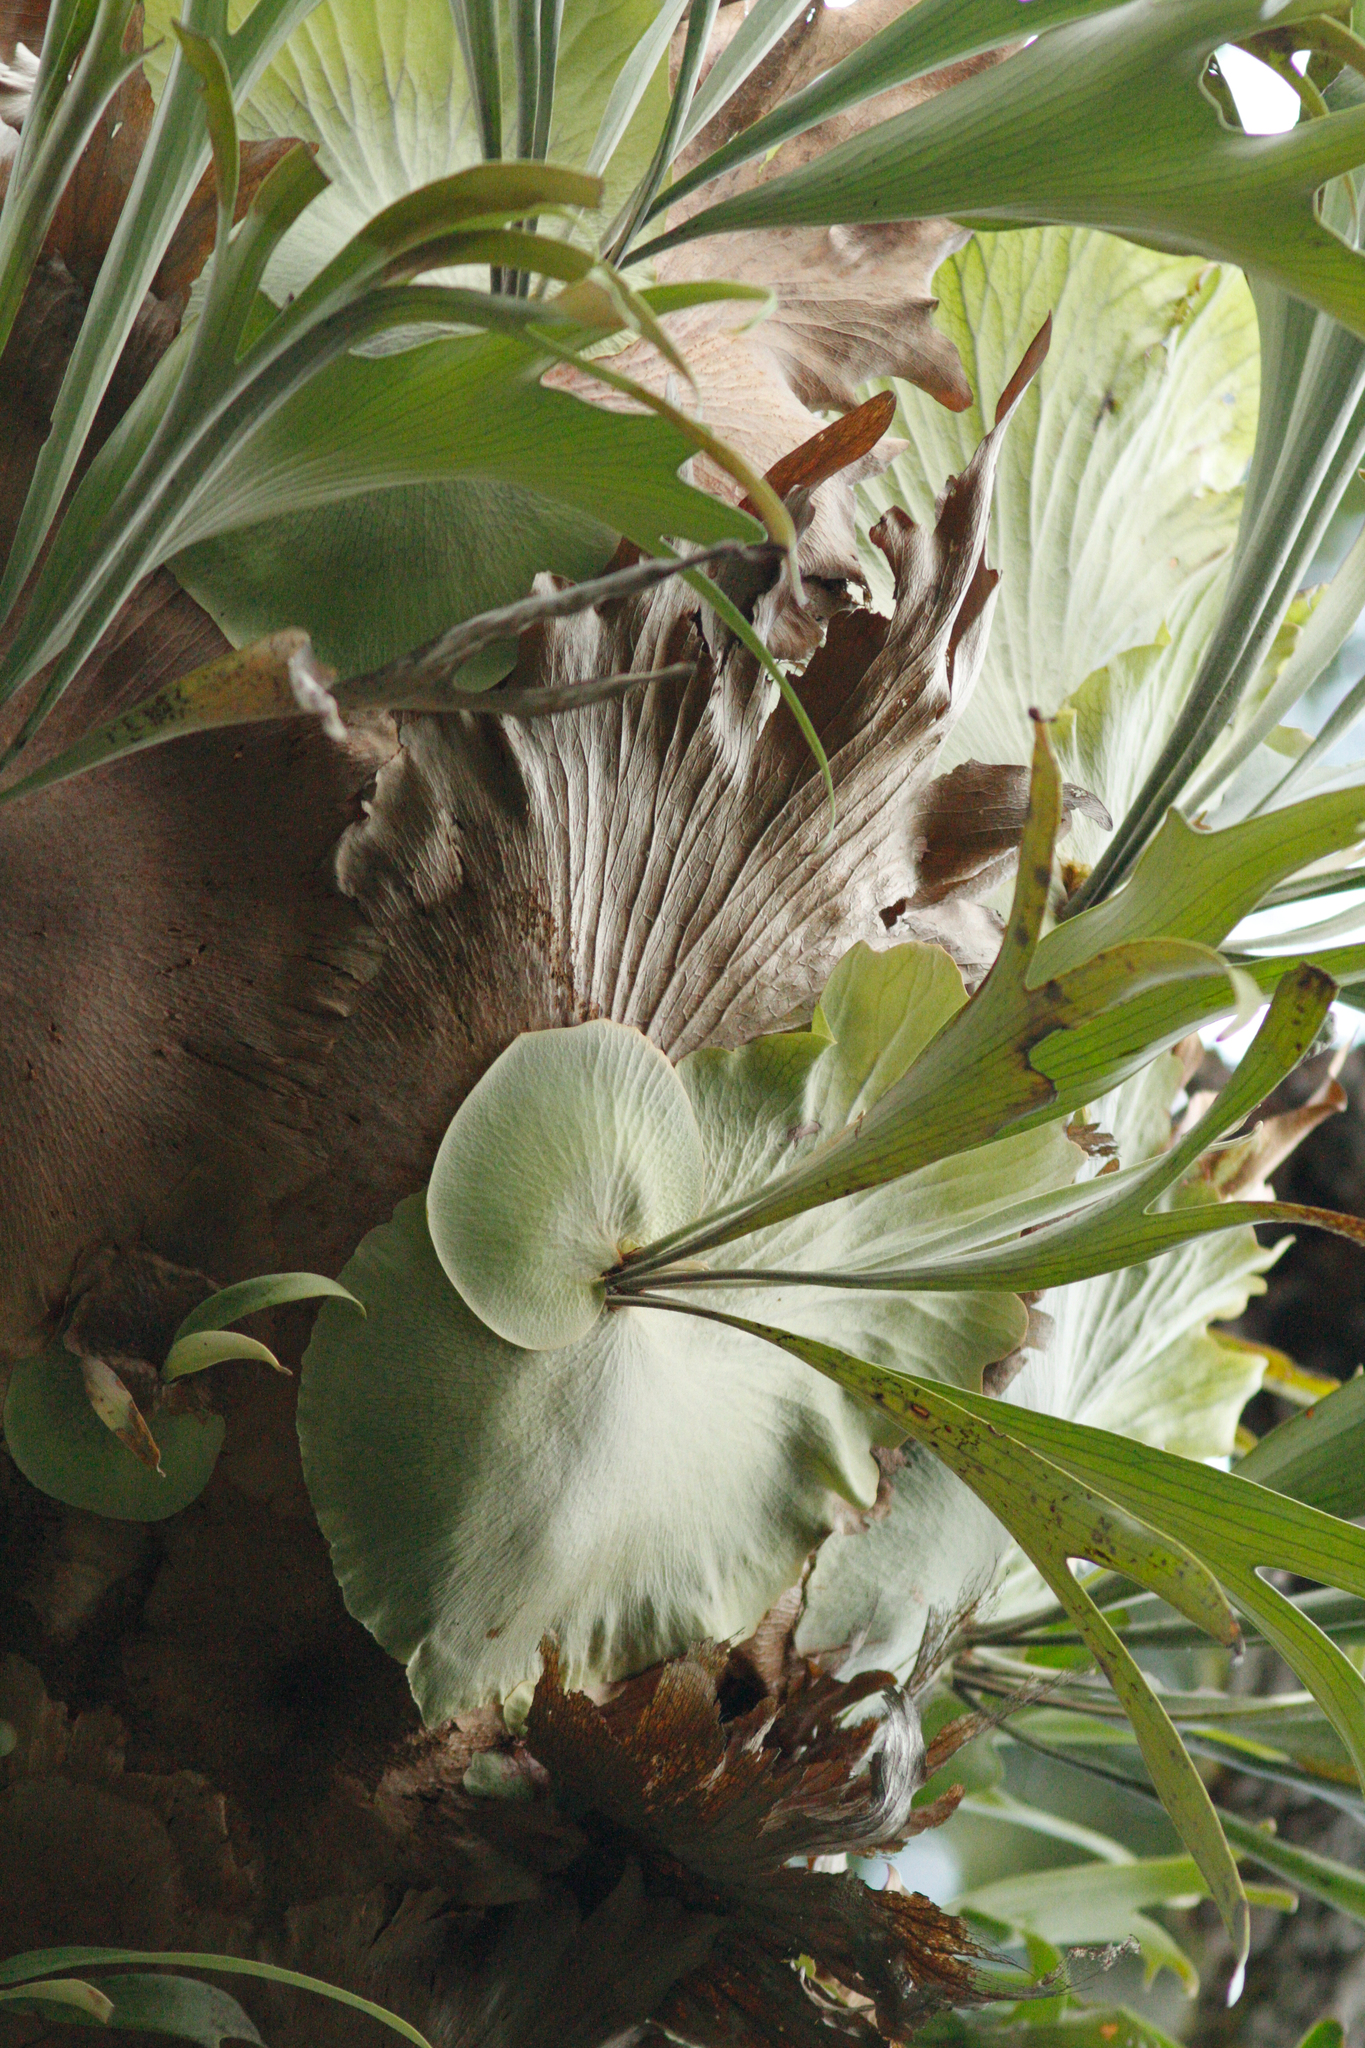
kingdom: Plantae
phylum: Tracheophyta
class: Polypodiopsida
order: Polypodiales
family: Polypodiaceae
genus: Platycerium
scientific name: Platycerium bifurcatum
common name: Elkhorn fern
